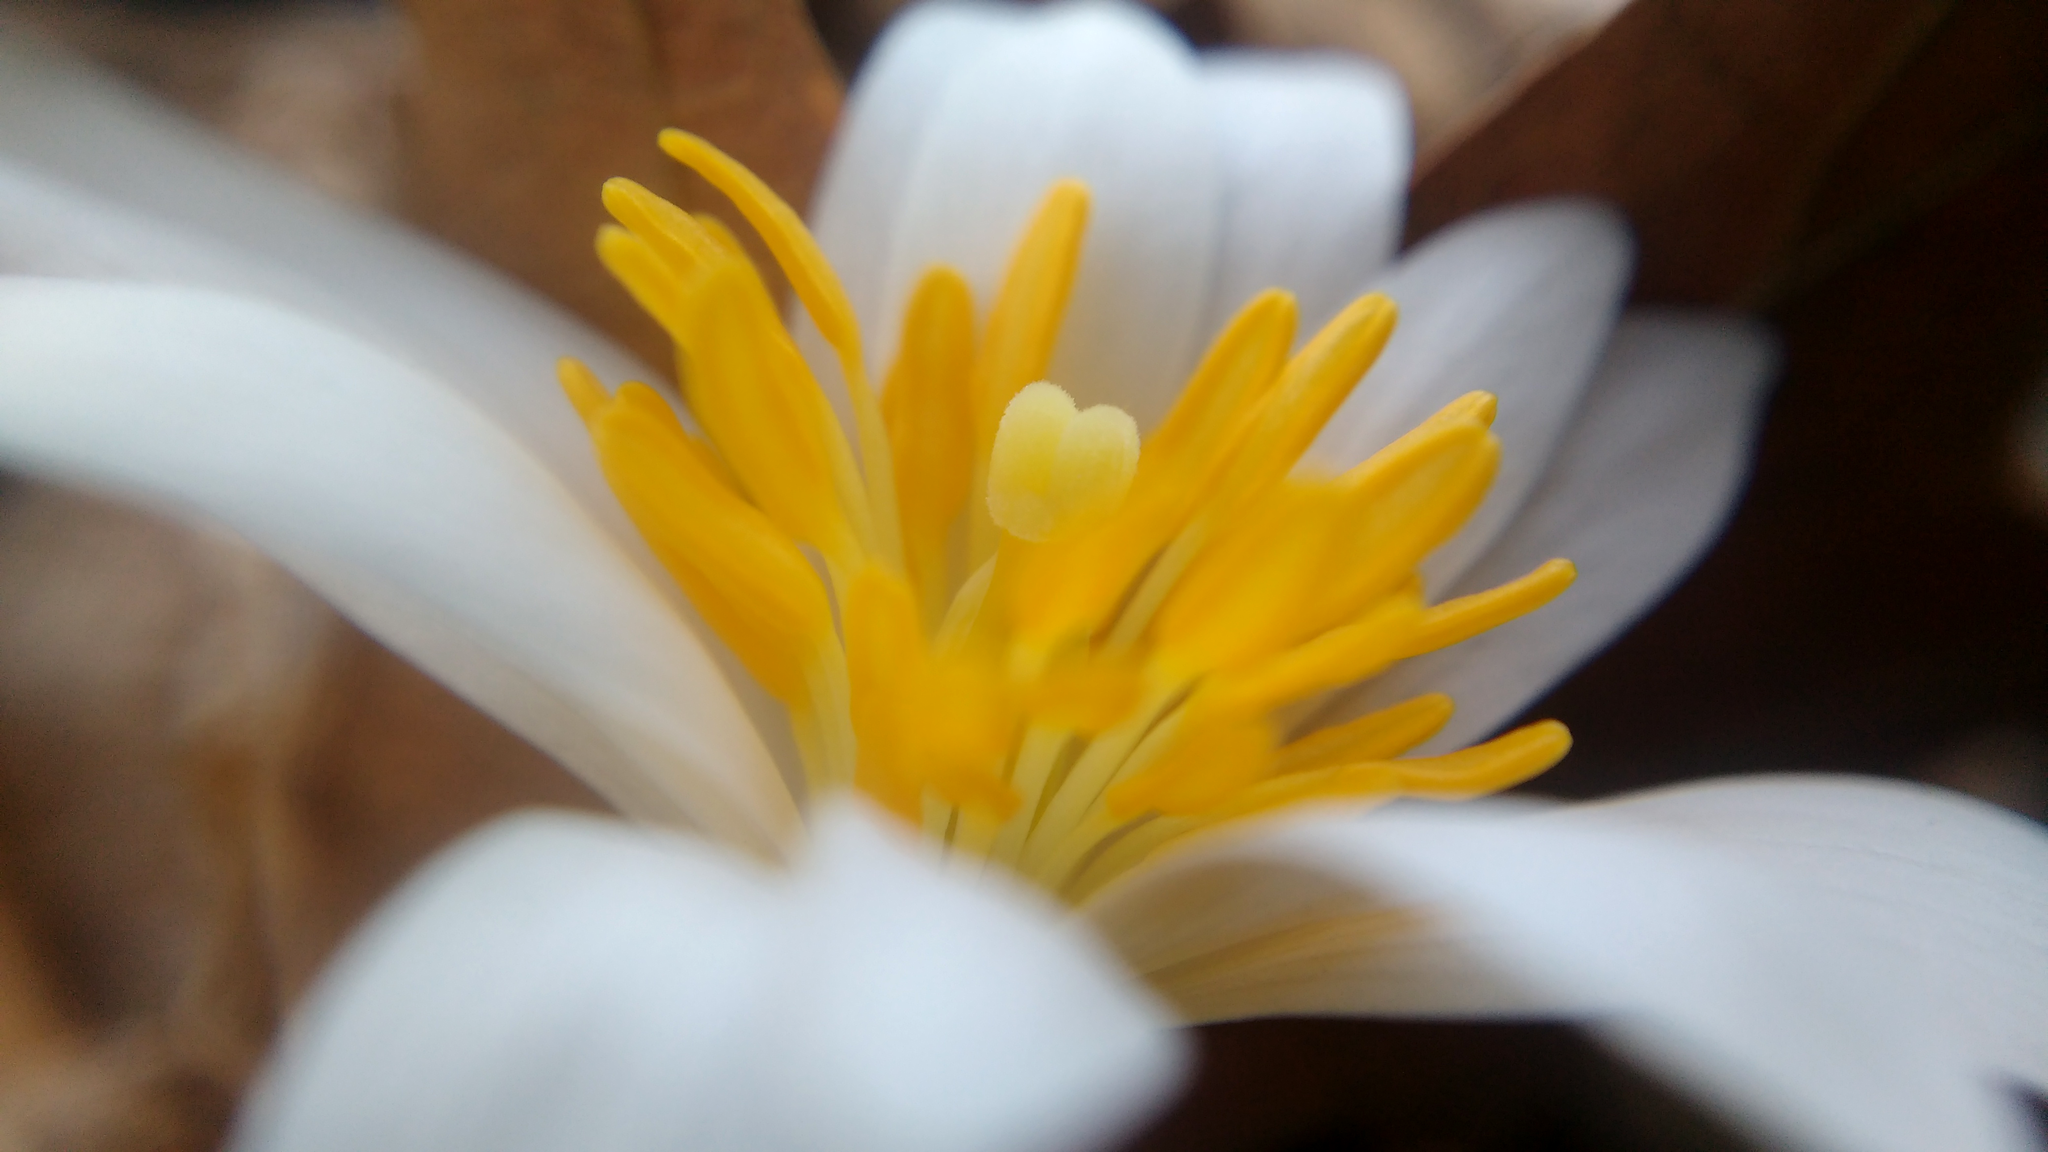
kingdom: Plantae
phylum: Tracheophyta
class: Magnoliopsida
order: Ranunculales
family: Papaveraceae
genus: Sanguinaria
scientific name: Sanguinaria canadensis
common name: Bloodroot
